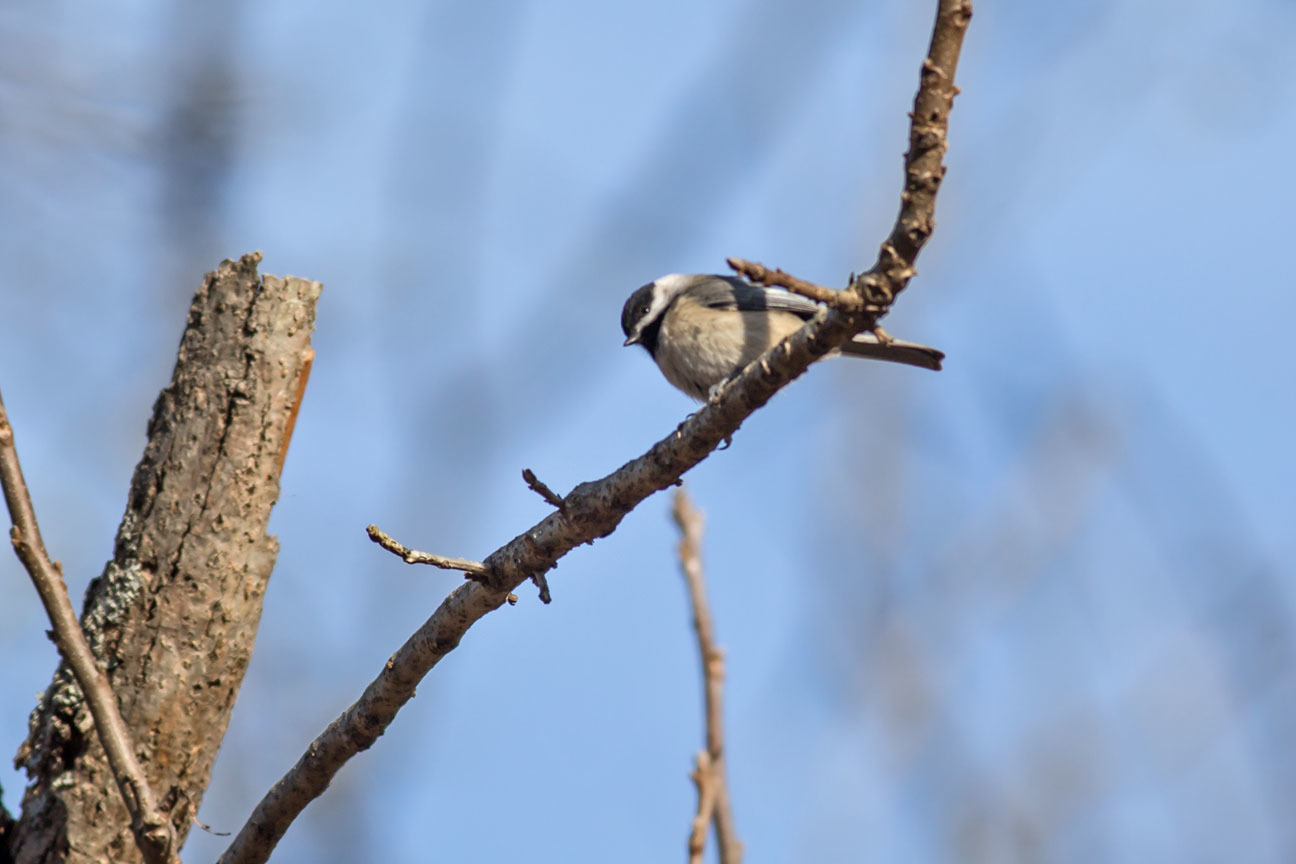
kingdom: Animalia
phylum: Chordata
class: Aves
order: Passeriformes
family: Paridae
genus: Poecile
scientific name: Poecile carolinensis
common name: Carolina chickadee
